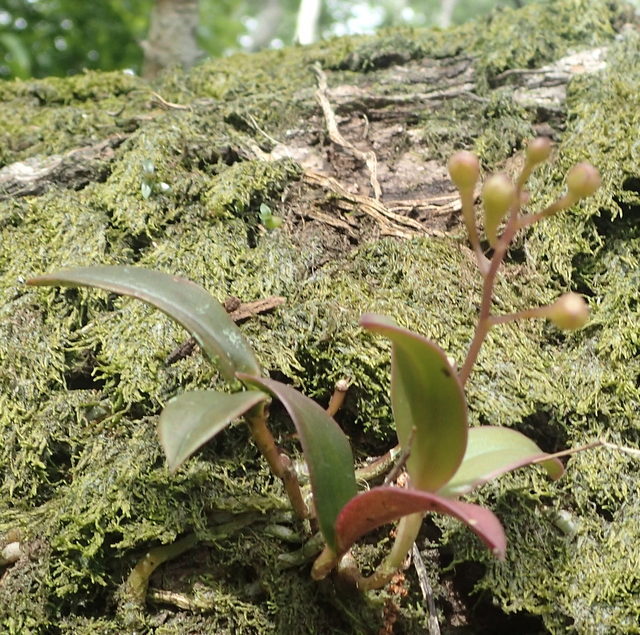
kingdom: Plantae
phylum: Tracheophyta
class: Liliopsida
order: Asparagales
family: Orchidaceae
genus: Epidendrum
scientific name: Epidendrum conopseum
